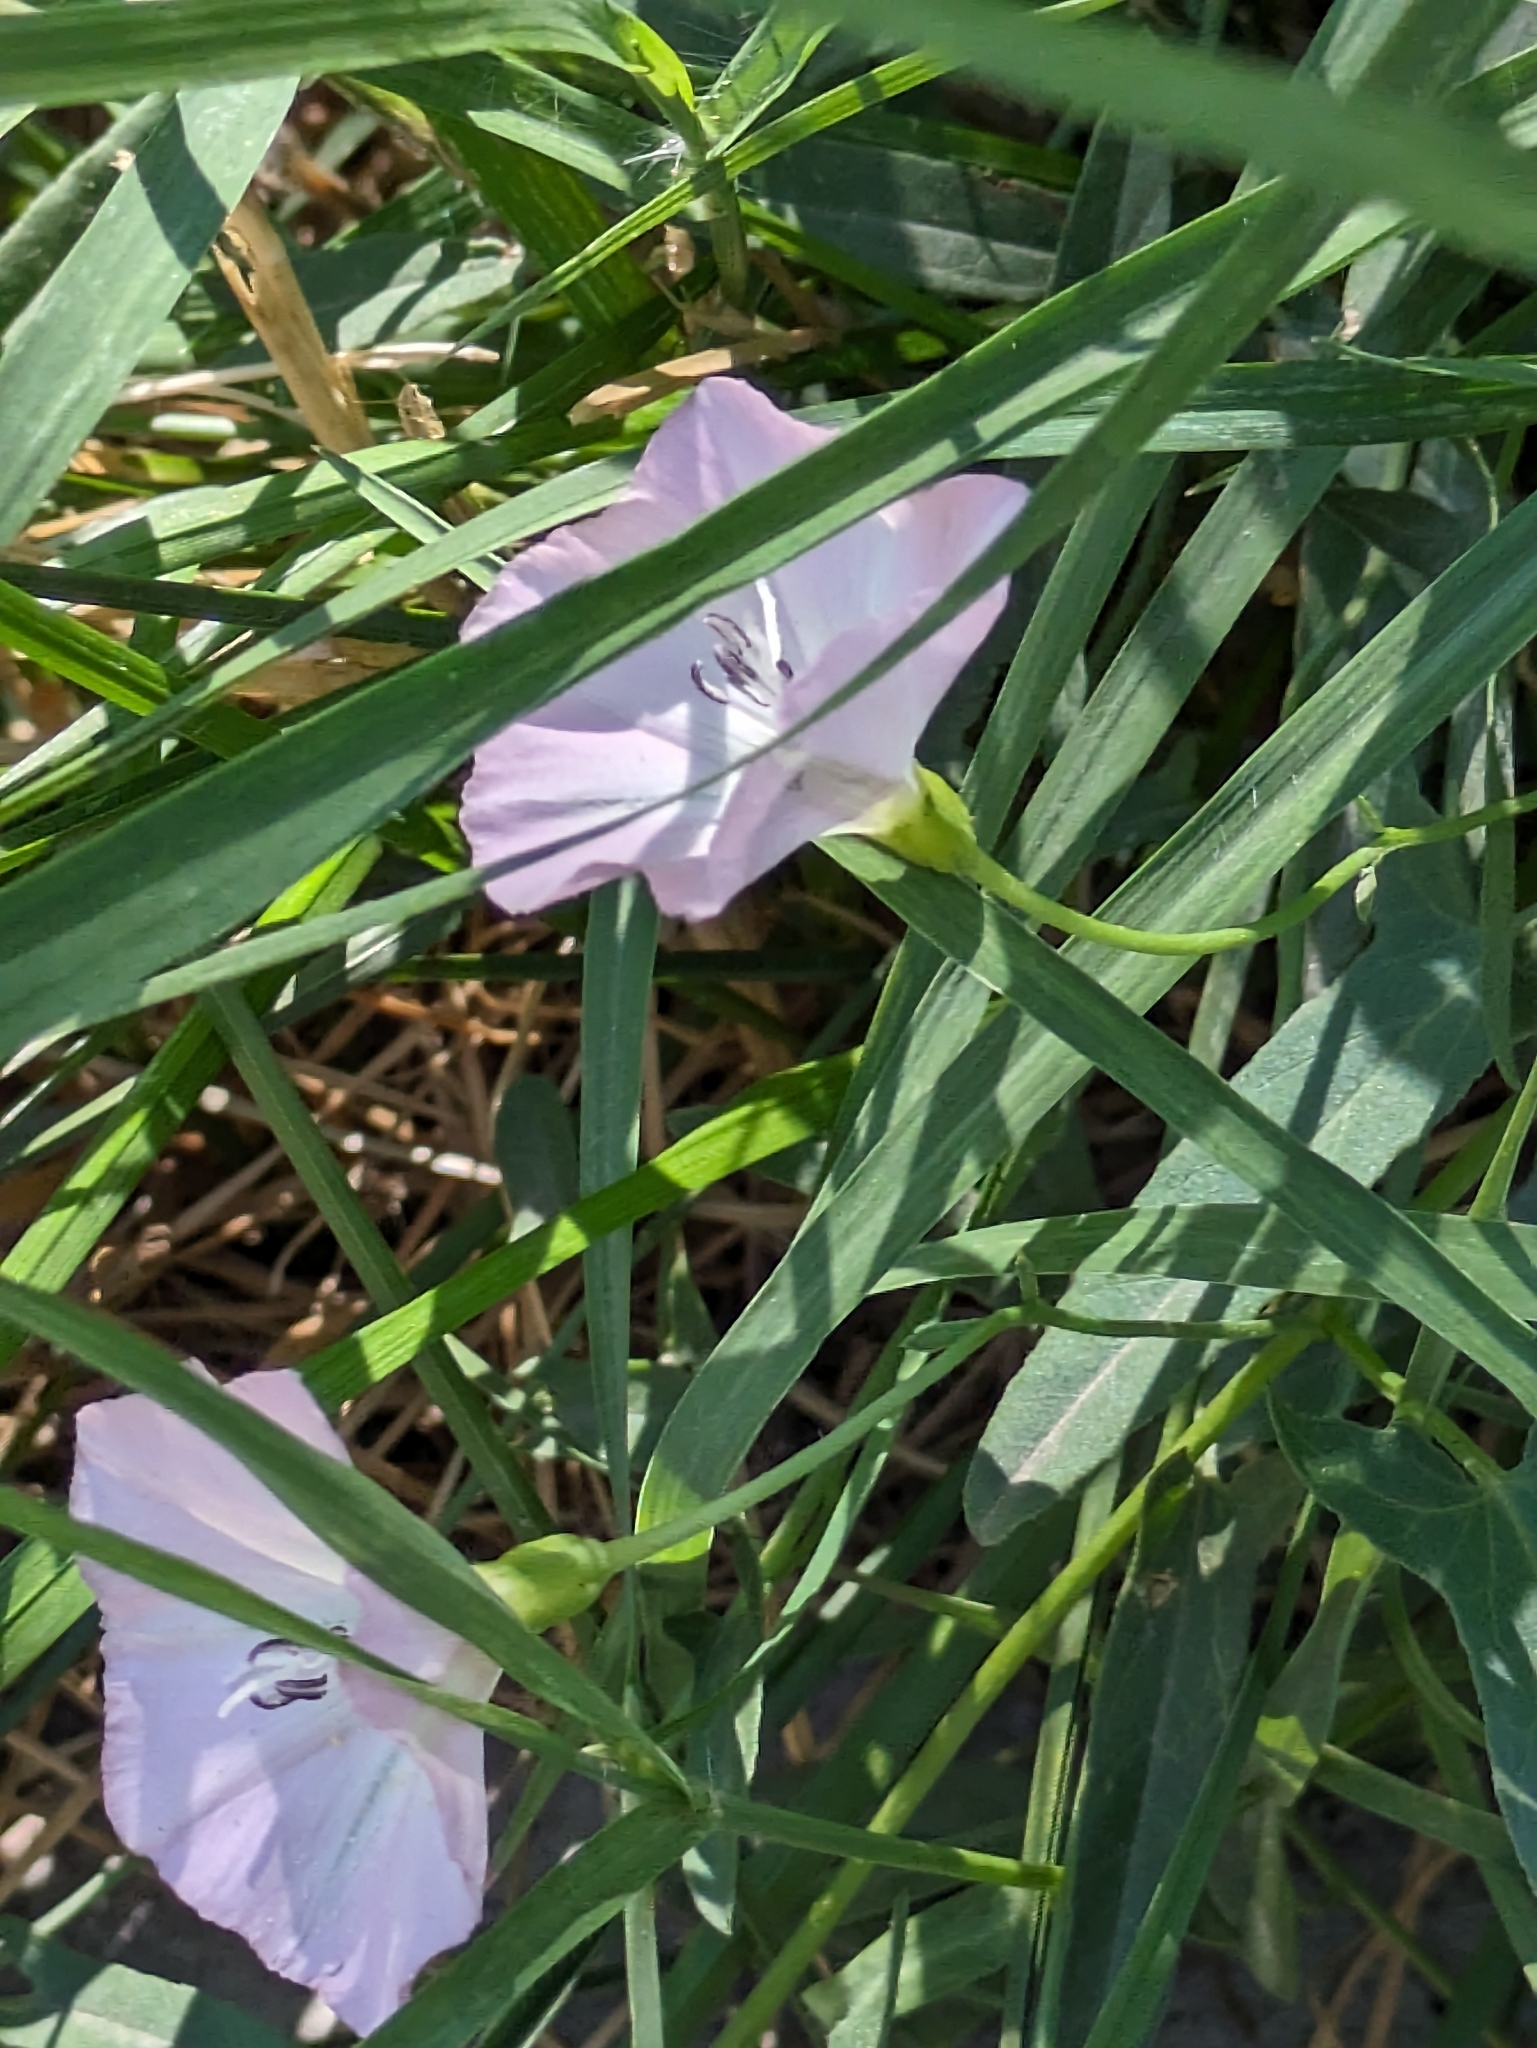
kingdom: Plantae
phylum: Tracheophyta
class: Magnoliopsida
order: Solanales
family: Convolvulaceae
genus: Convolvulus
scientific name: Convolvulus arvensis
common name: Field bindweed
